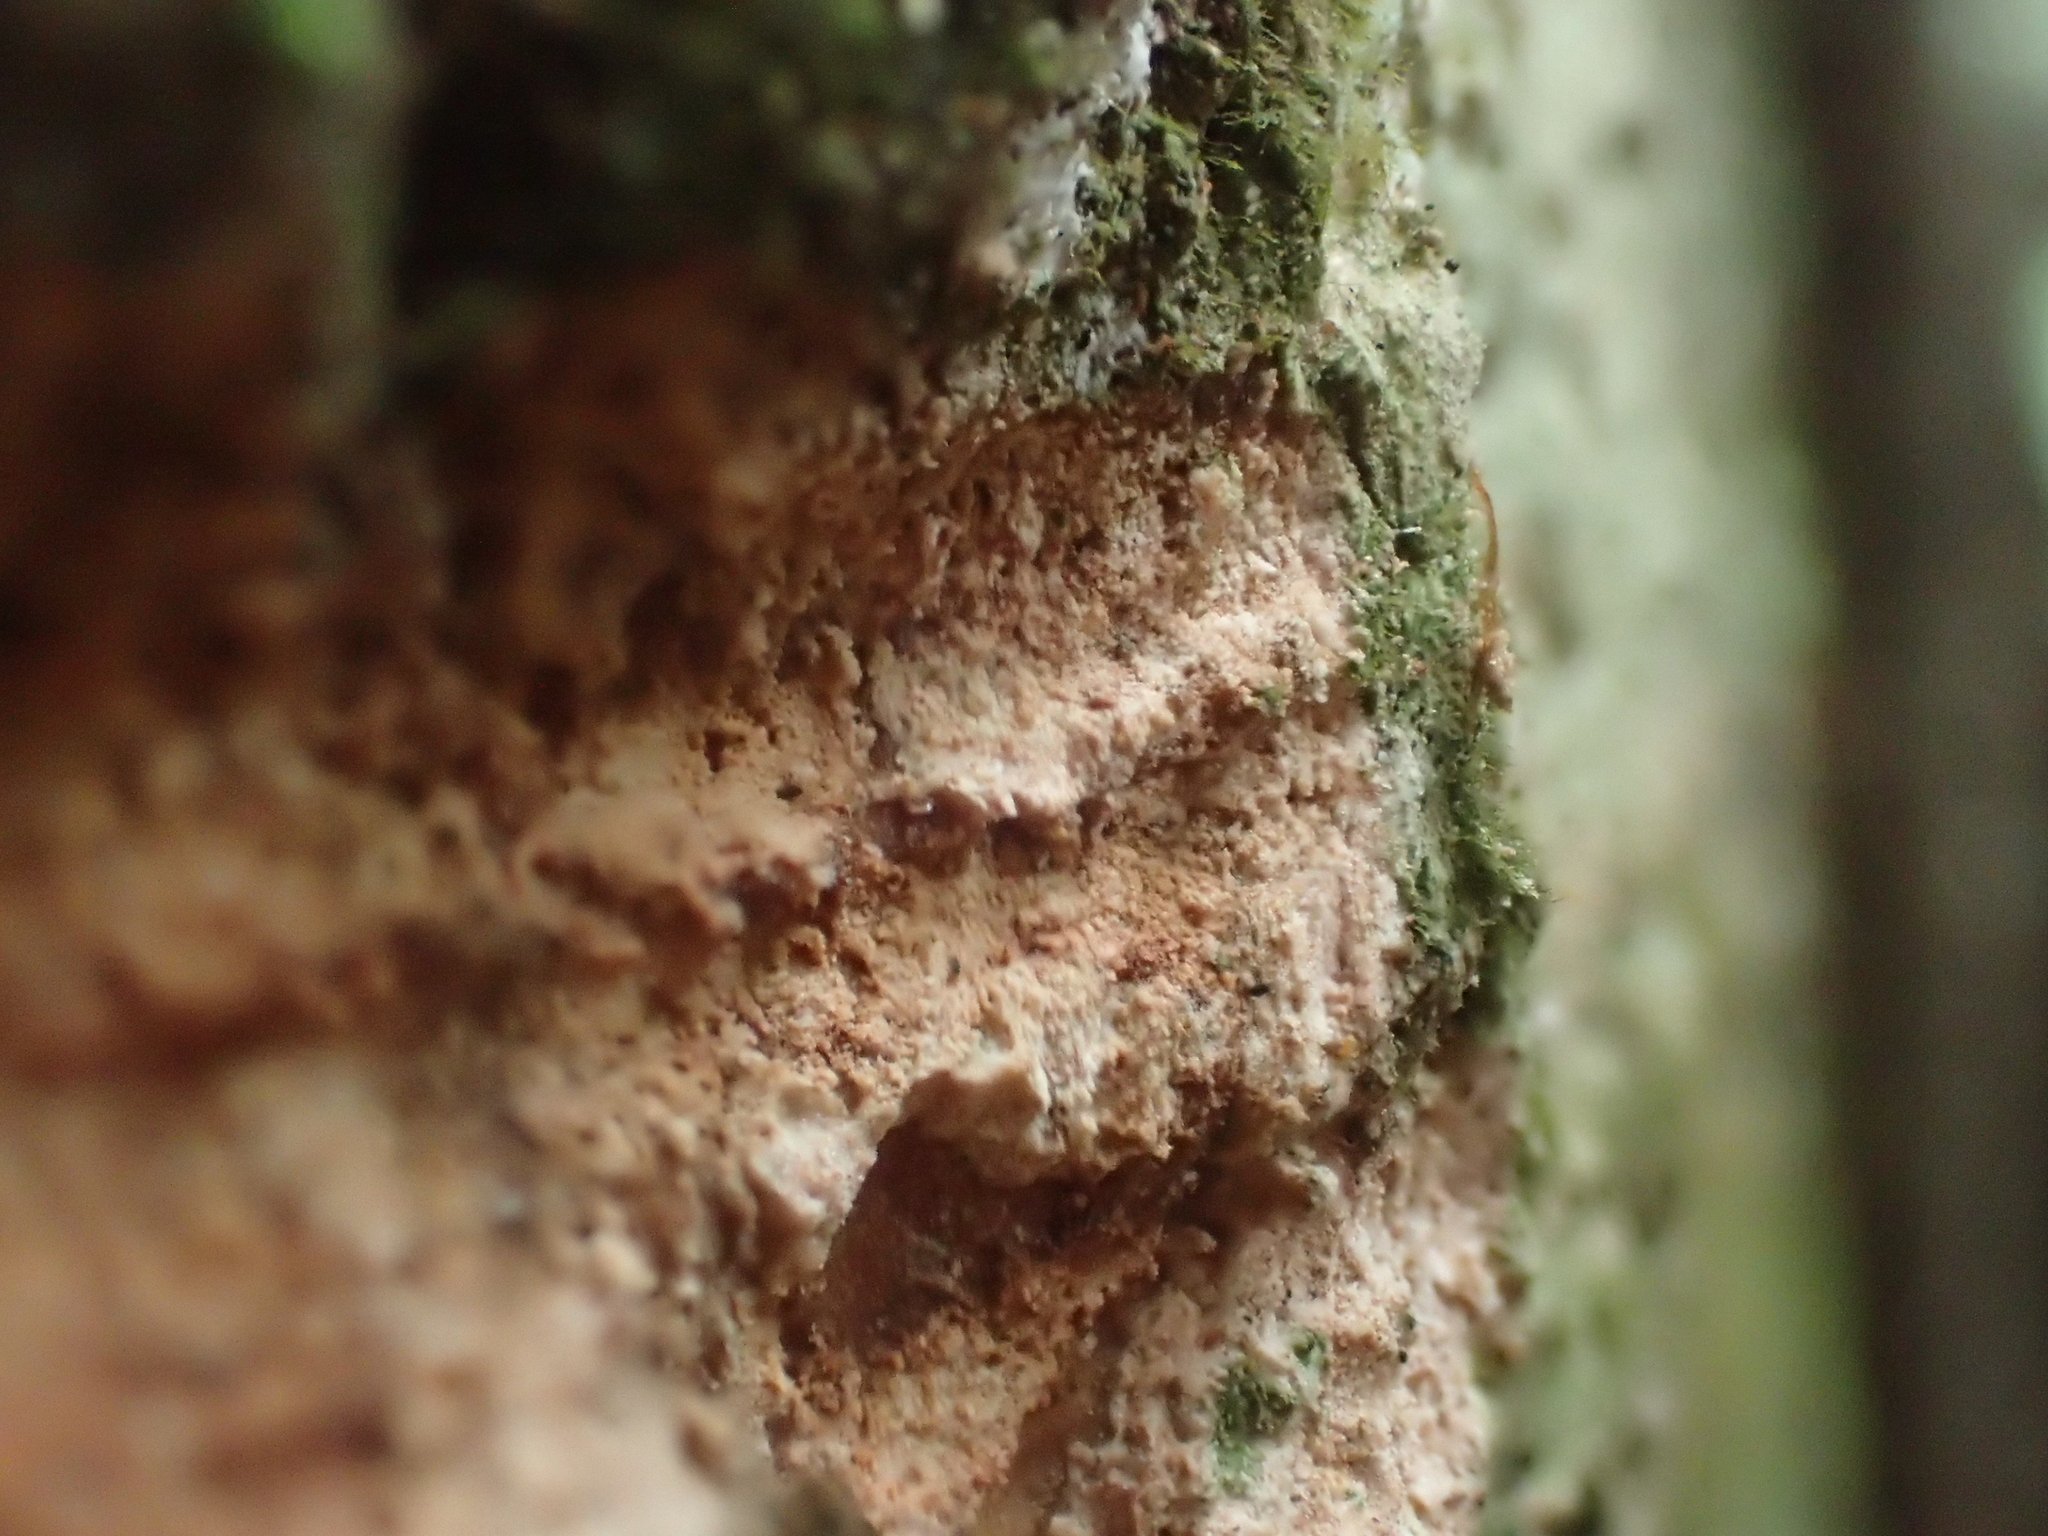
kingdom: Animalia
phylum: Chordata
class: Mammalia
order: Diprotodontia
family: Phalangeridae
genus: Trichosurus
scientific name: Trichosurus vulpecula
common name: Common brushtail
